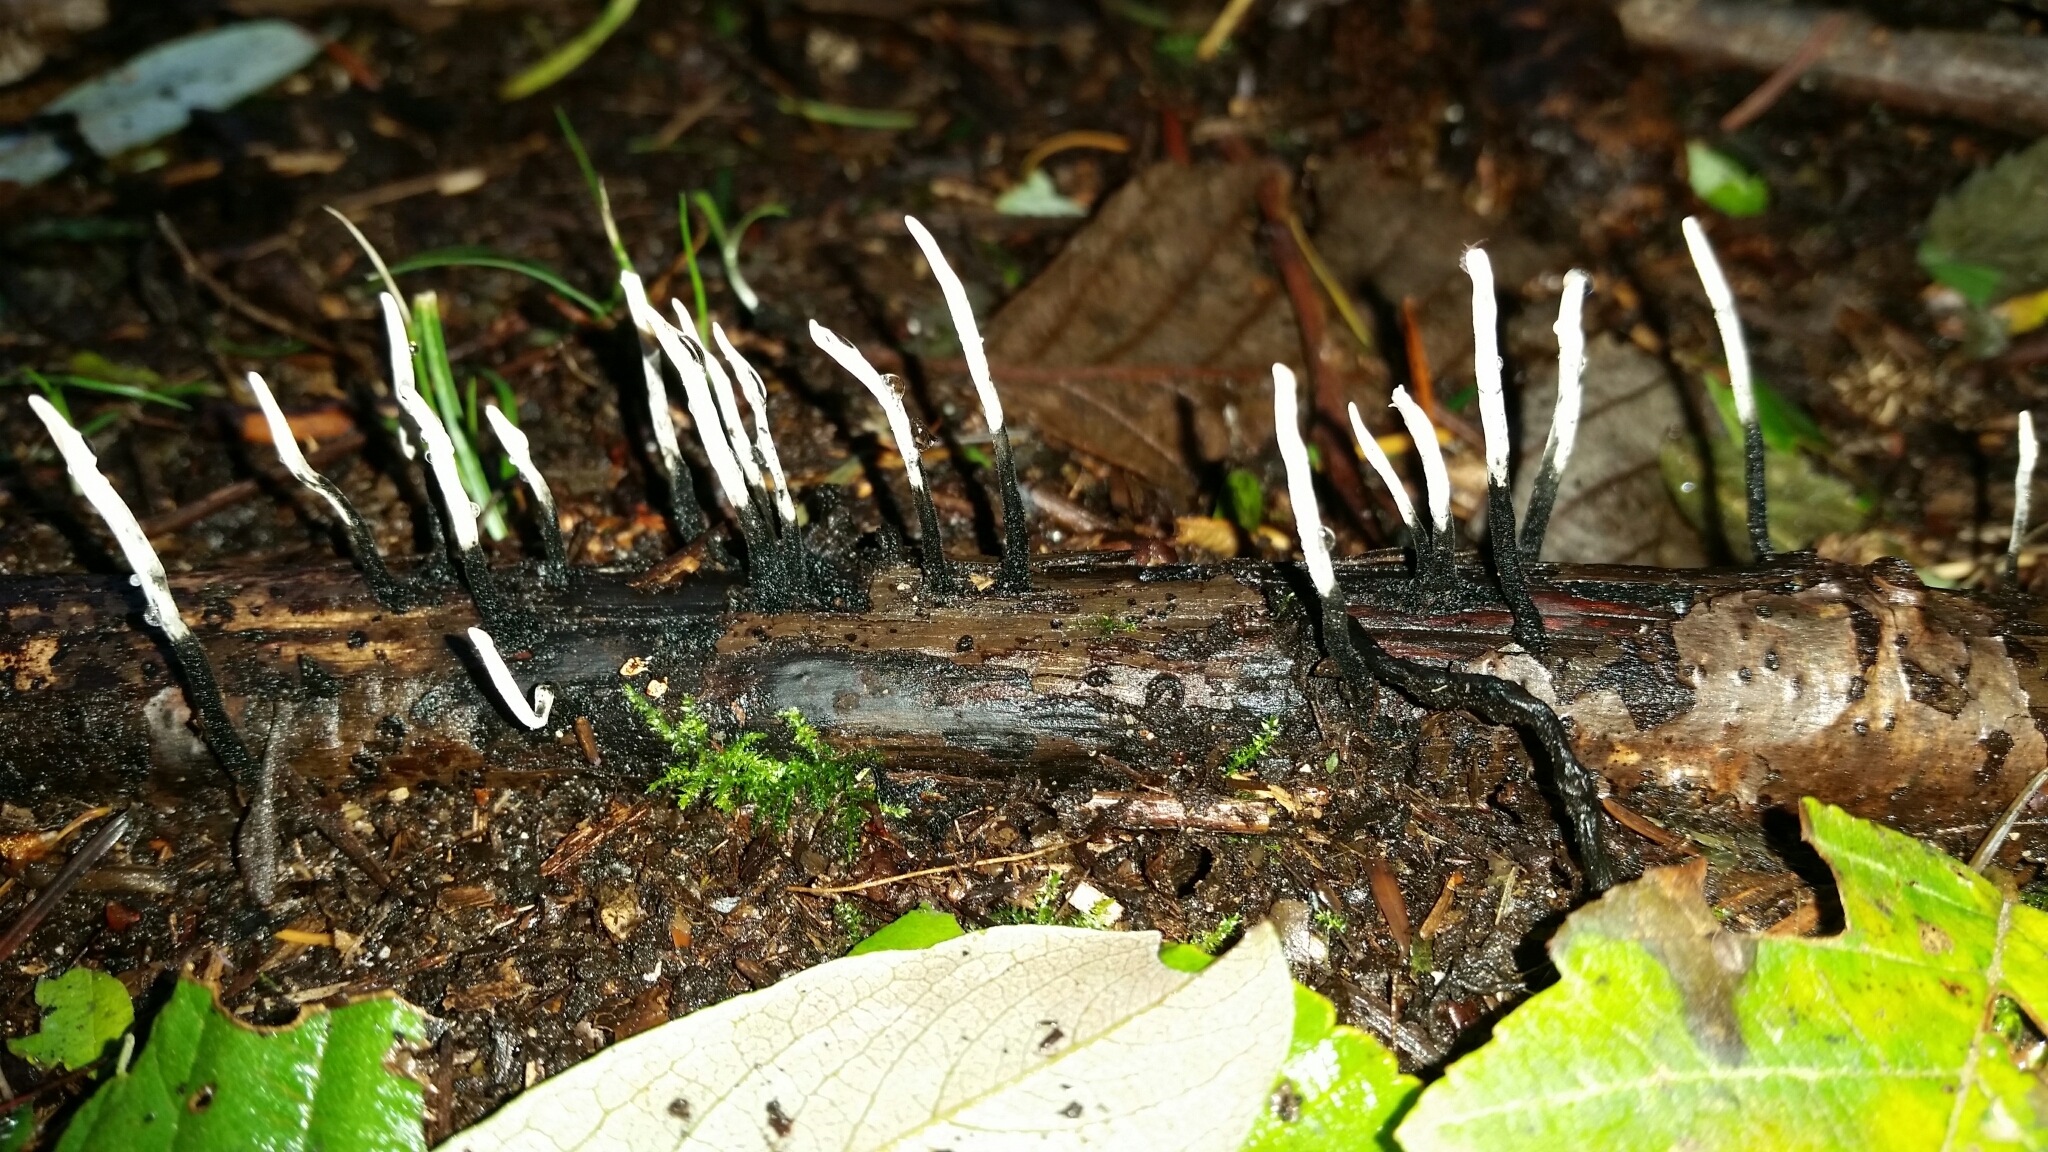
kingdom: Fungi
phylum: Ascomycota
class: Sordariomycetes
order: Xylariales
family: Xylariaceae
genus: Xylaria
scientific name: Xylaria hypoxylon
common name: Candle-snuff fungus
